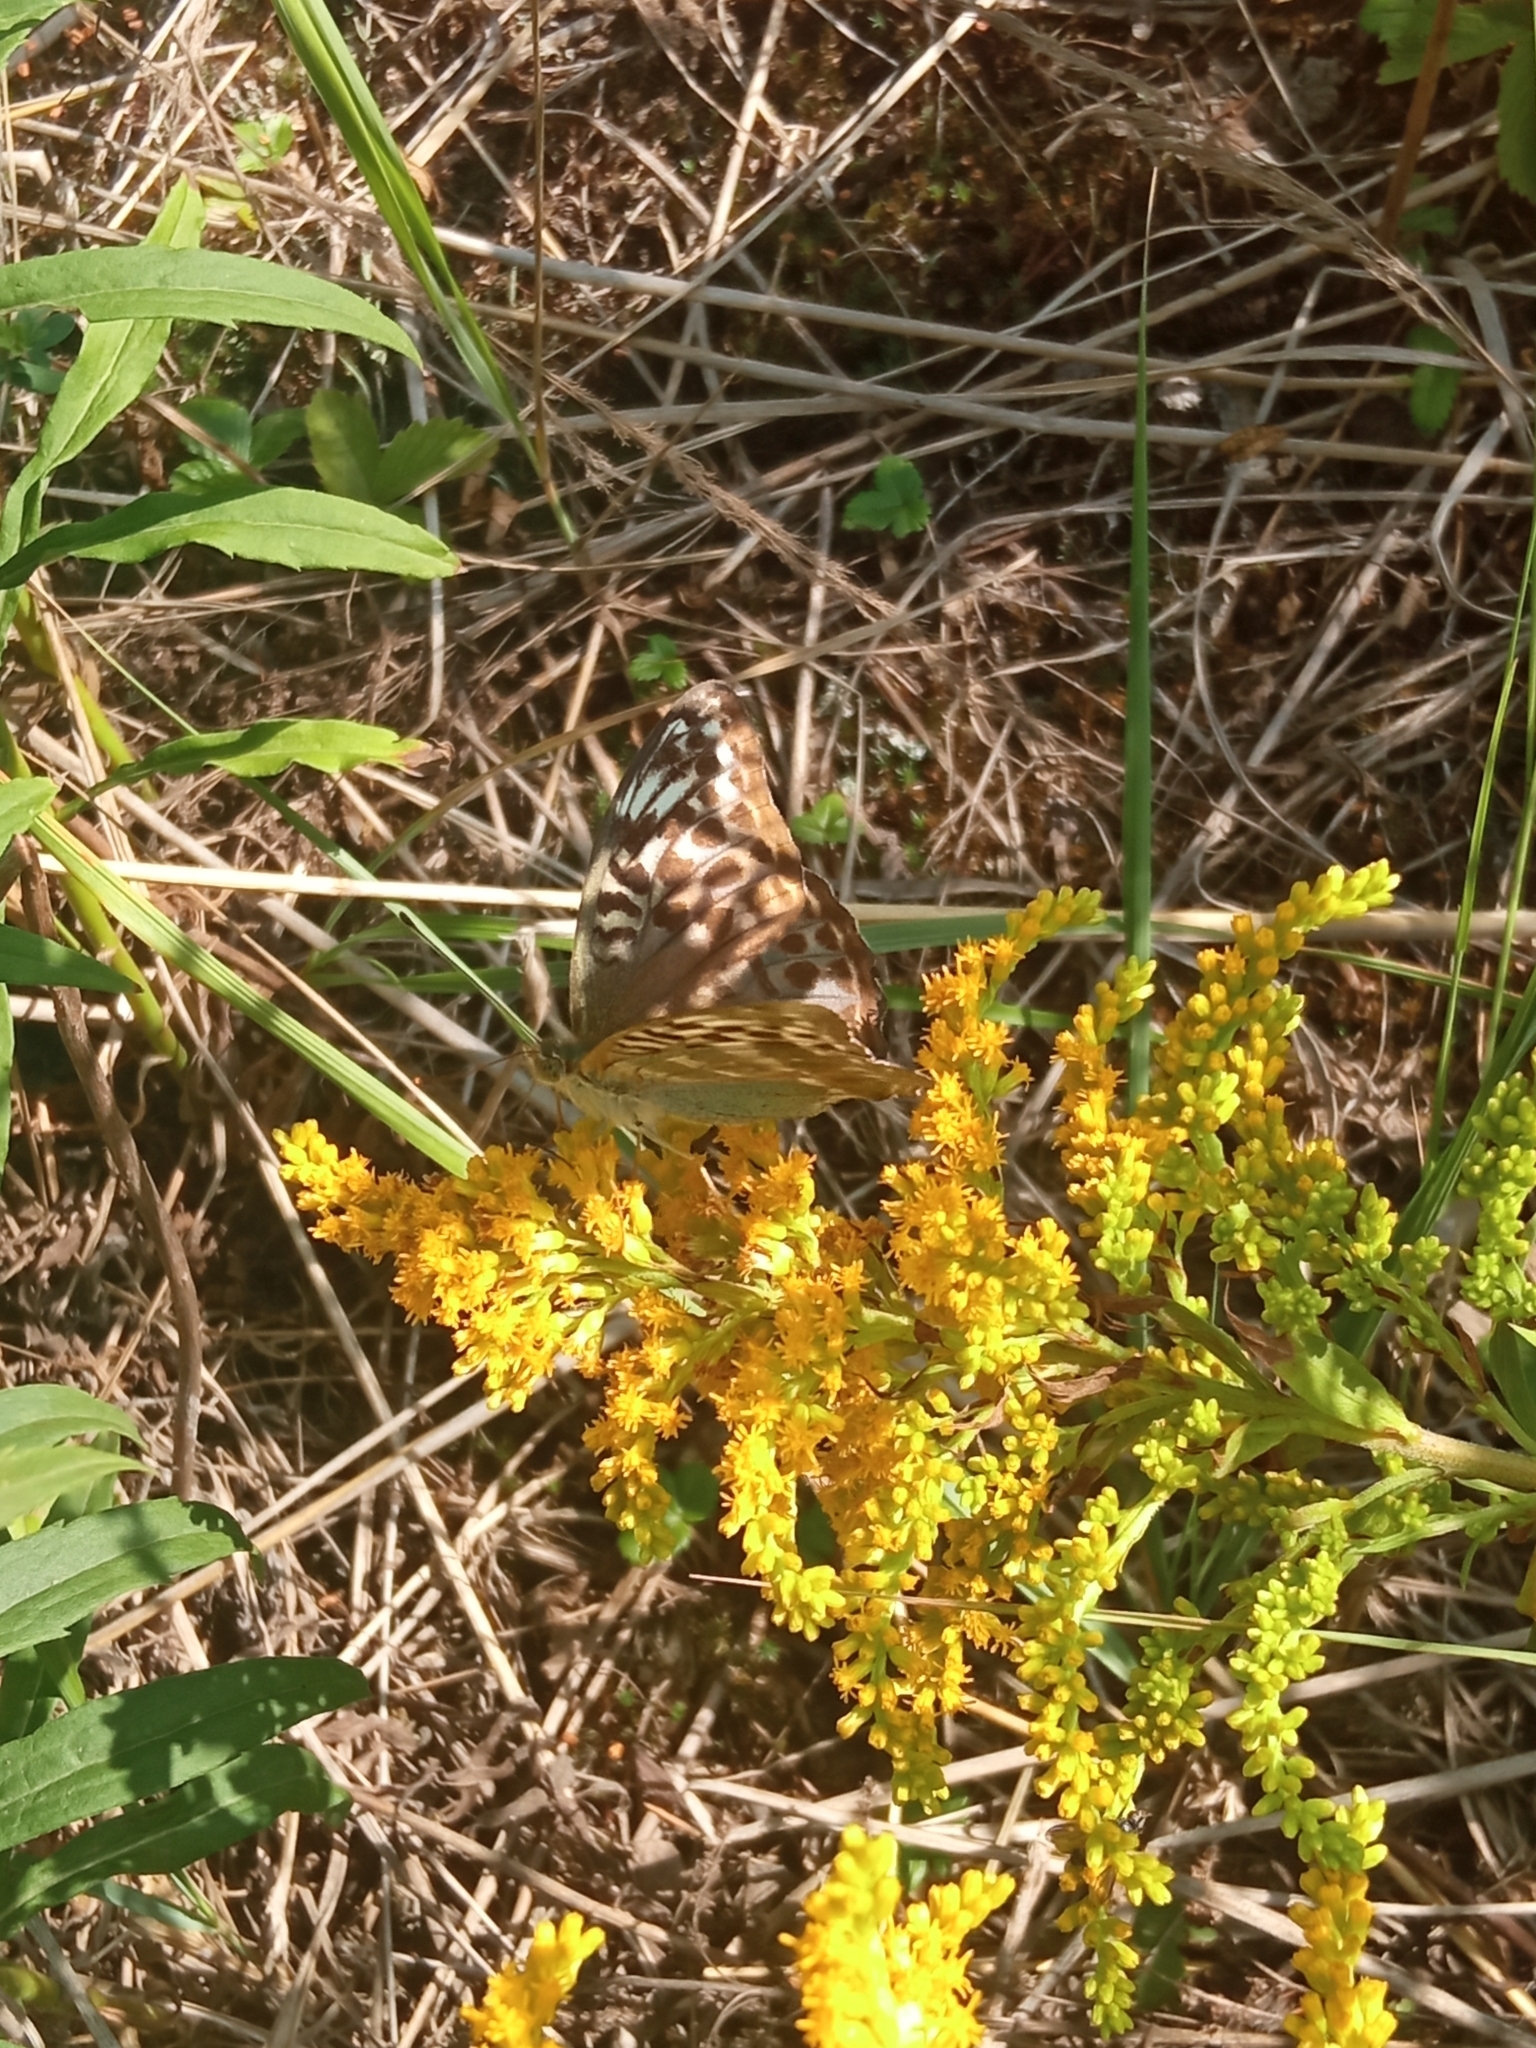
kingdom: Animalia
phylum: Arthropoda
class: Insecta
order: Lepidoptera
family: Nymphalidae
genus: Argynnis
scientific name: Argynnis paphia
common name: Silver-washed fritillary
